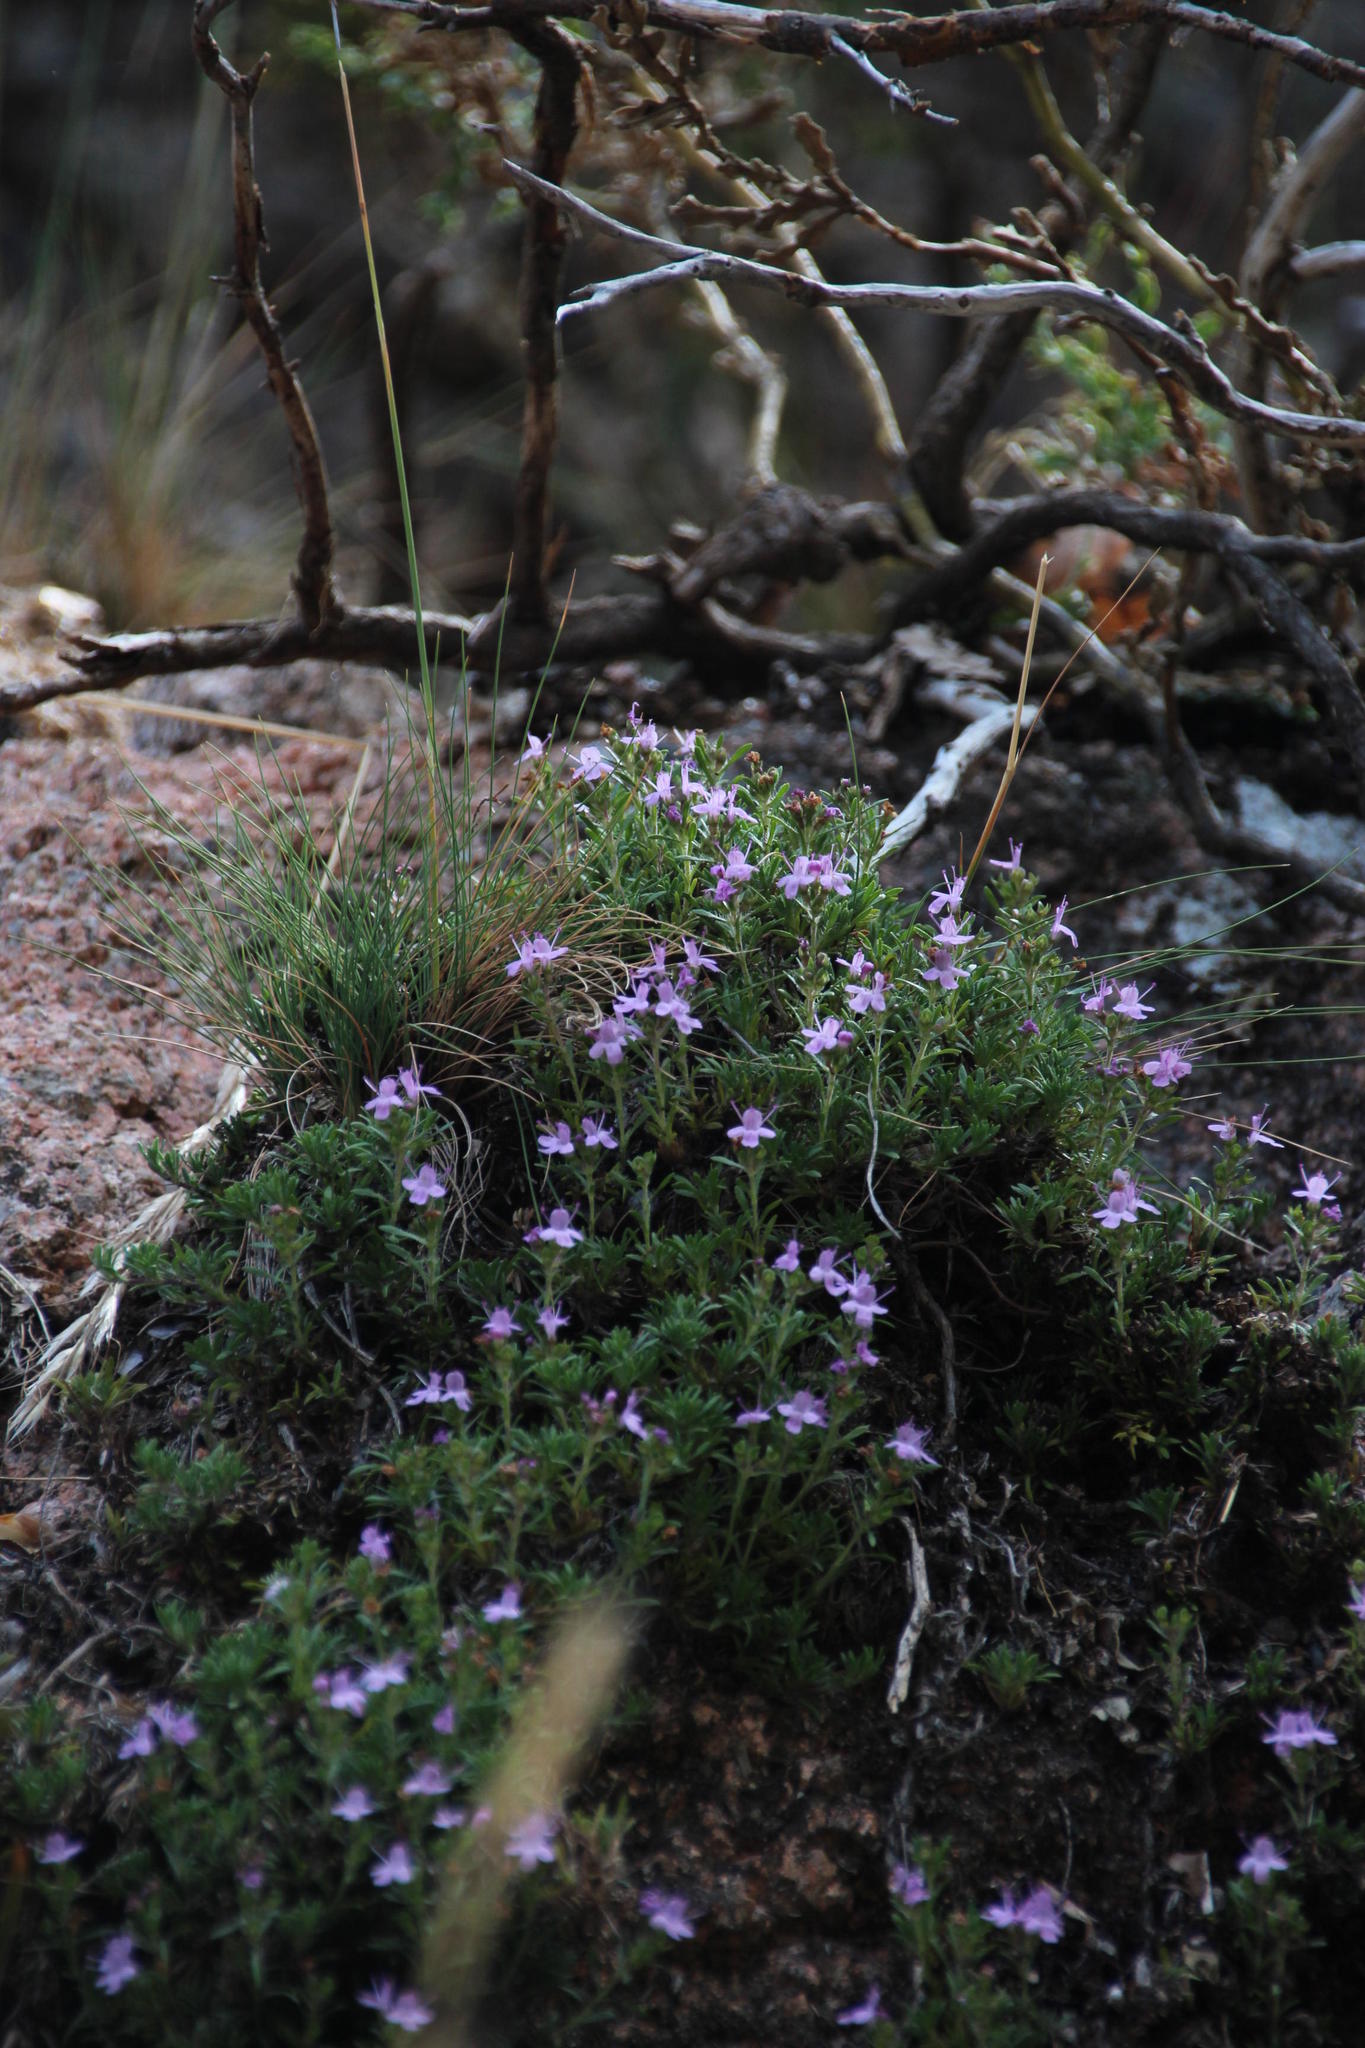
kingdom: Plantae
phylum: Tracheophyta
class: Magnoliopsida
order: Lamiales
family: Lamiaceae
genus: Thymus
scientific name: Thymus caespititius
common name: Azores thyme
